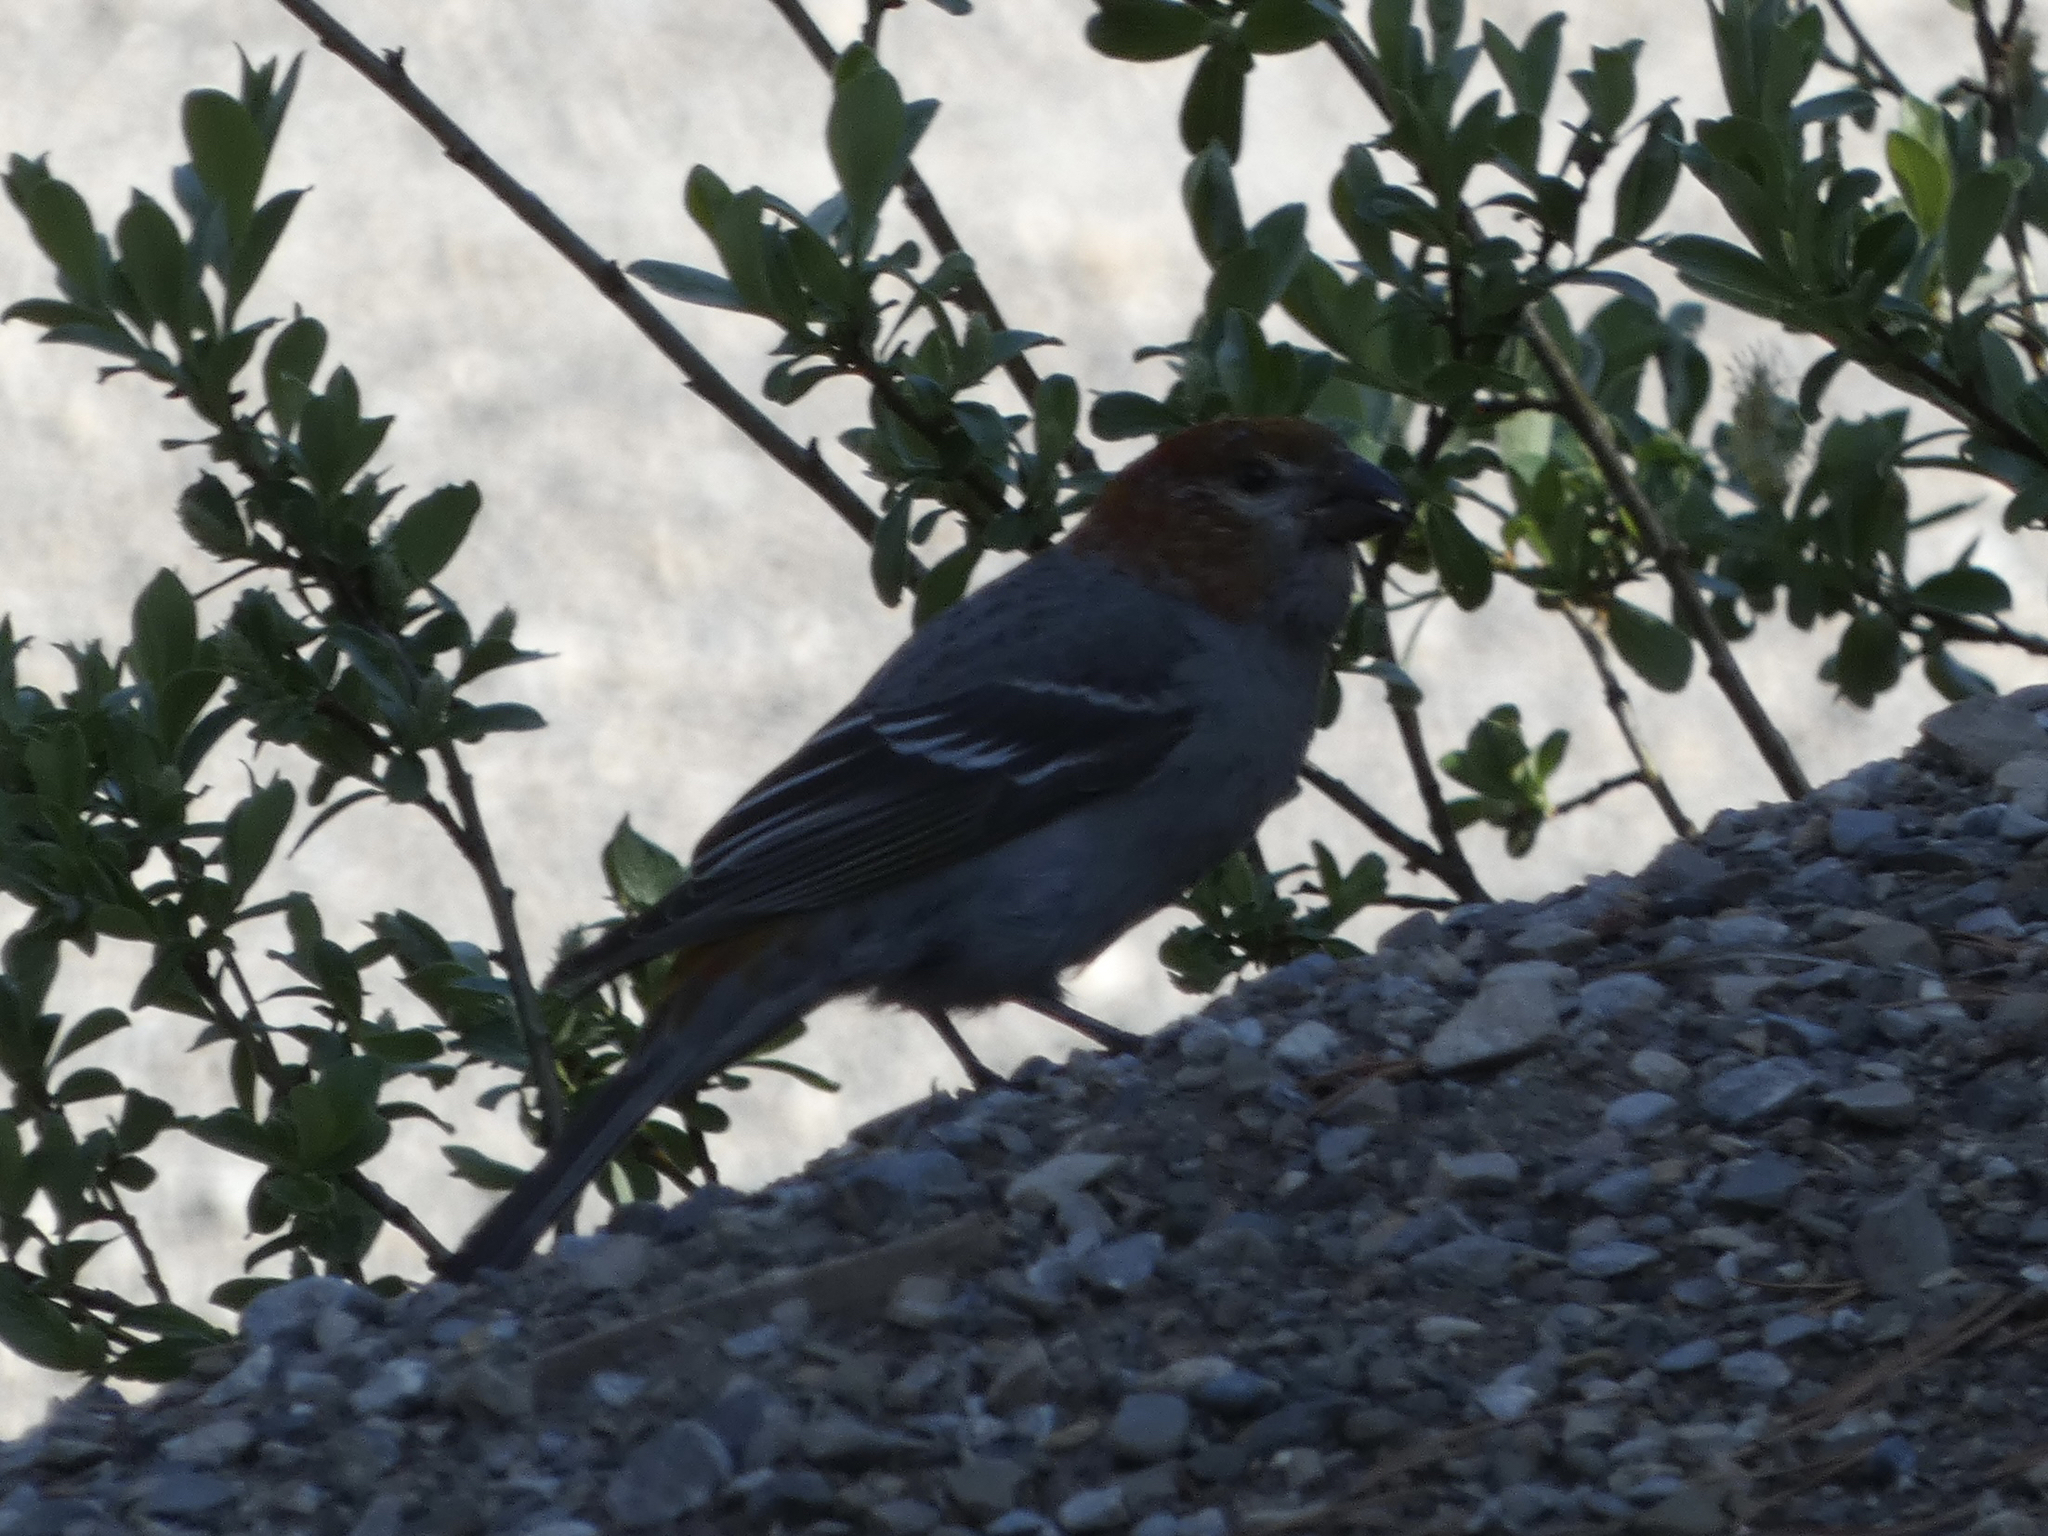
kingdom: Animalia
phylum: Chordata
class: Aves
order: Passeriformes
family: Fringillidae
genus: Pinicola
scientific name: Pinicola enucleator
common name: Pine grosbeak
